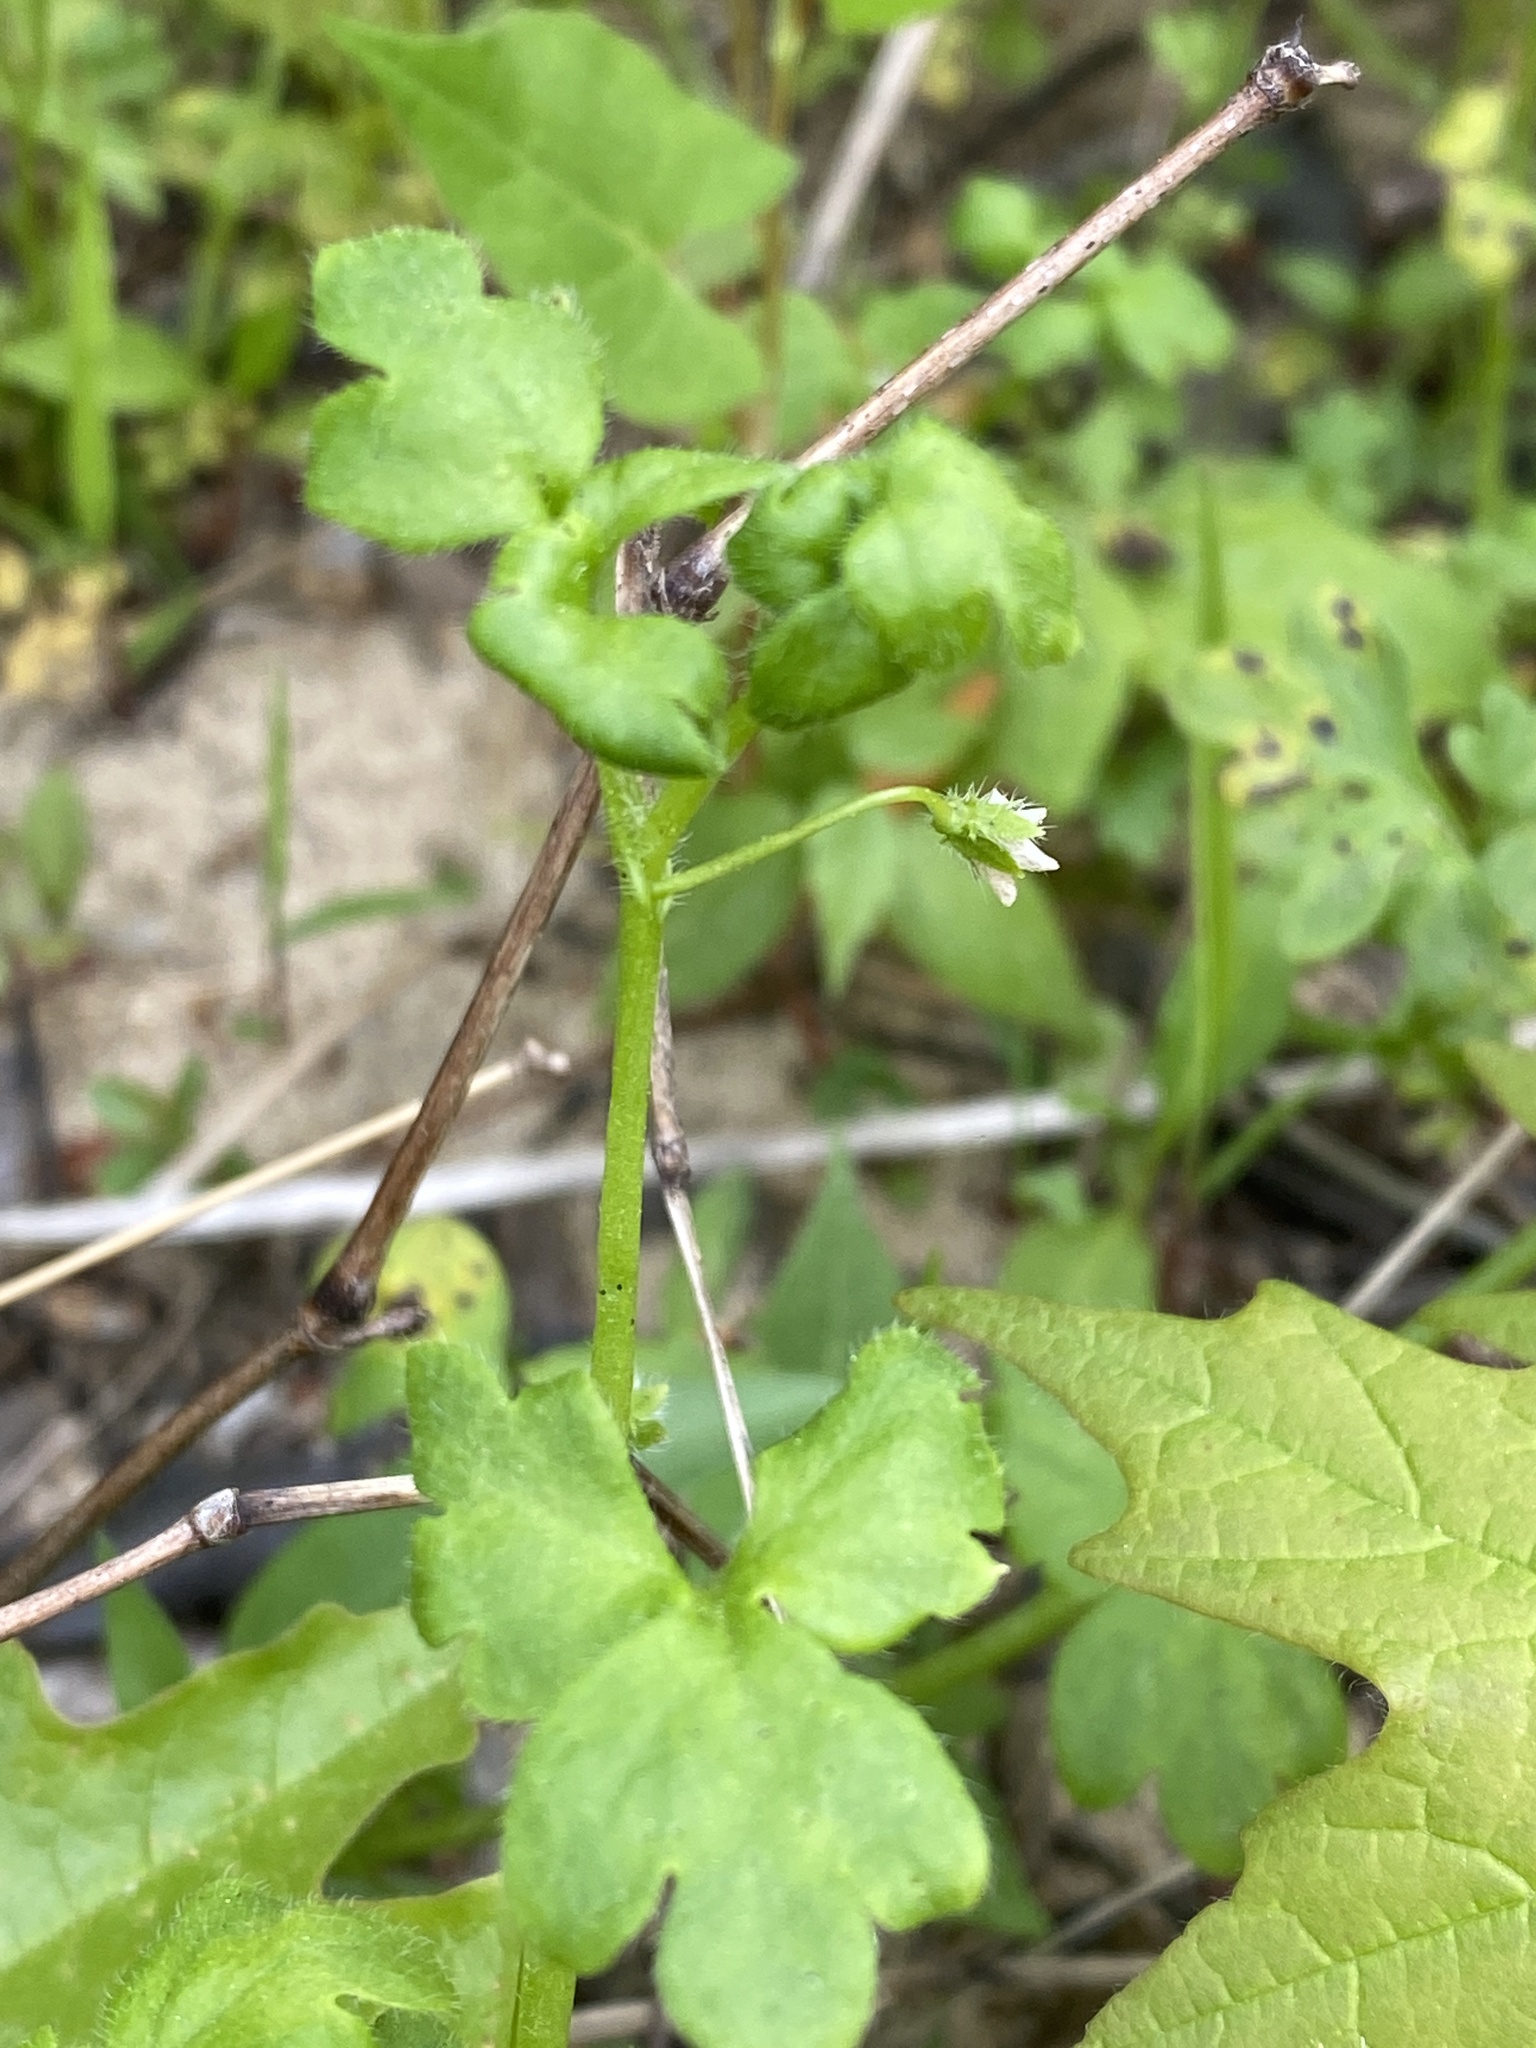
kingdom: Plantae
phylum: Tracheophyta
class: Magnoliopsida
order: Boraginales
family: Hydrophyllaceae
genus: Nemophila
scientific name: Nemophila aphylla
